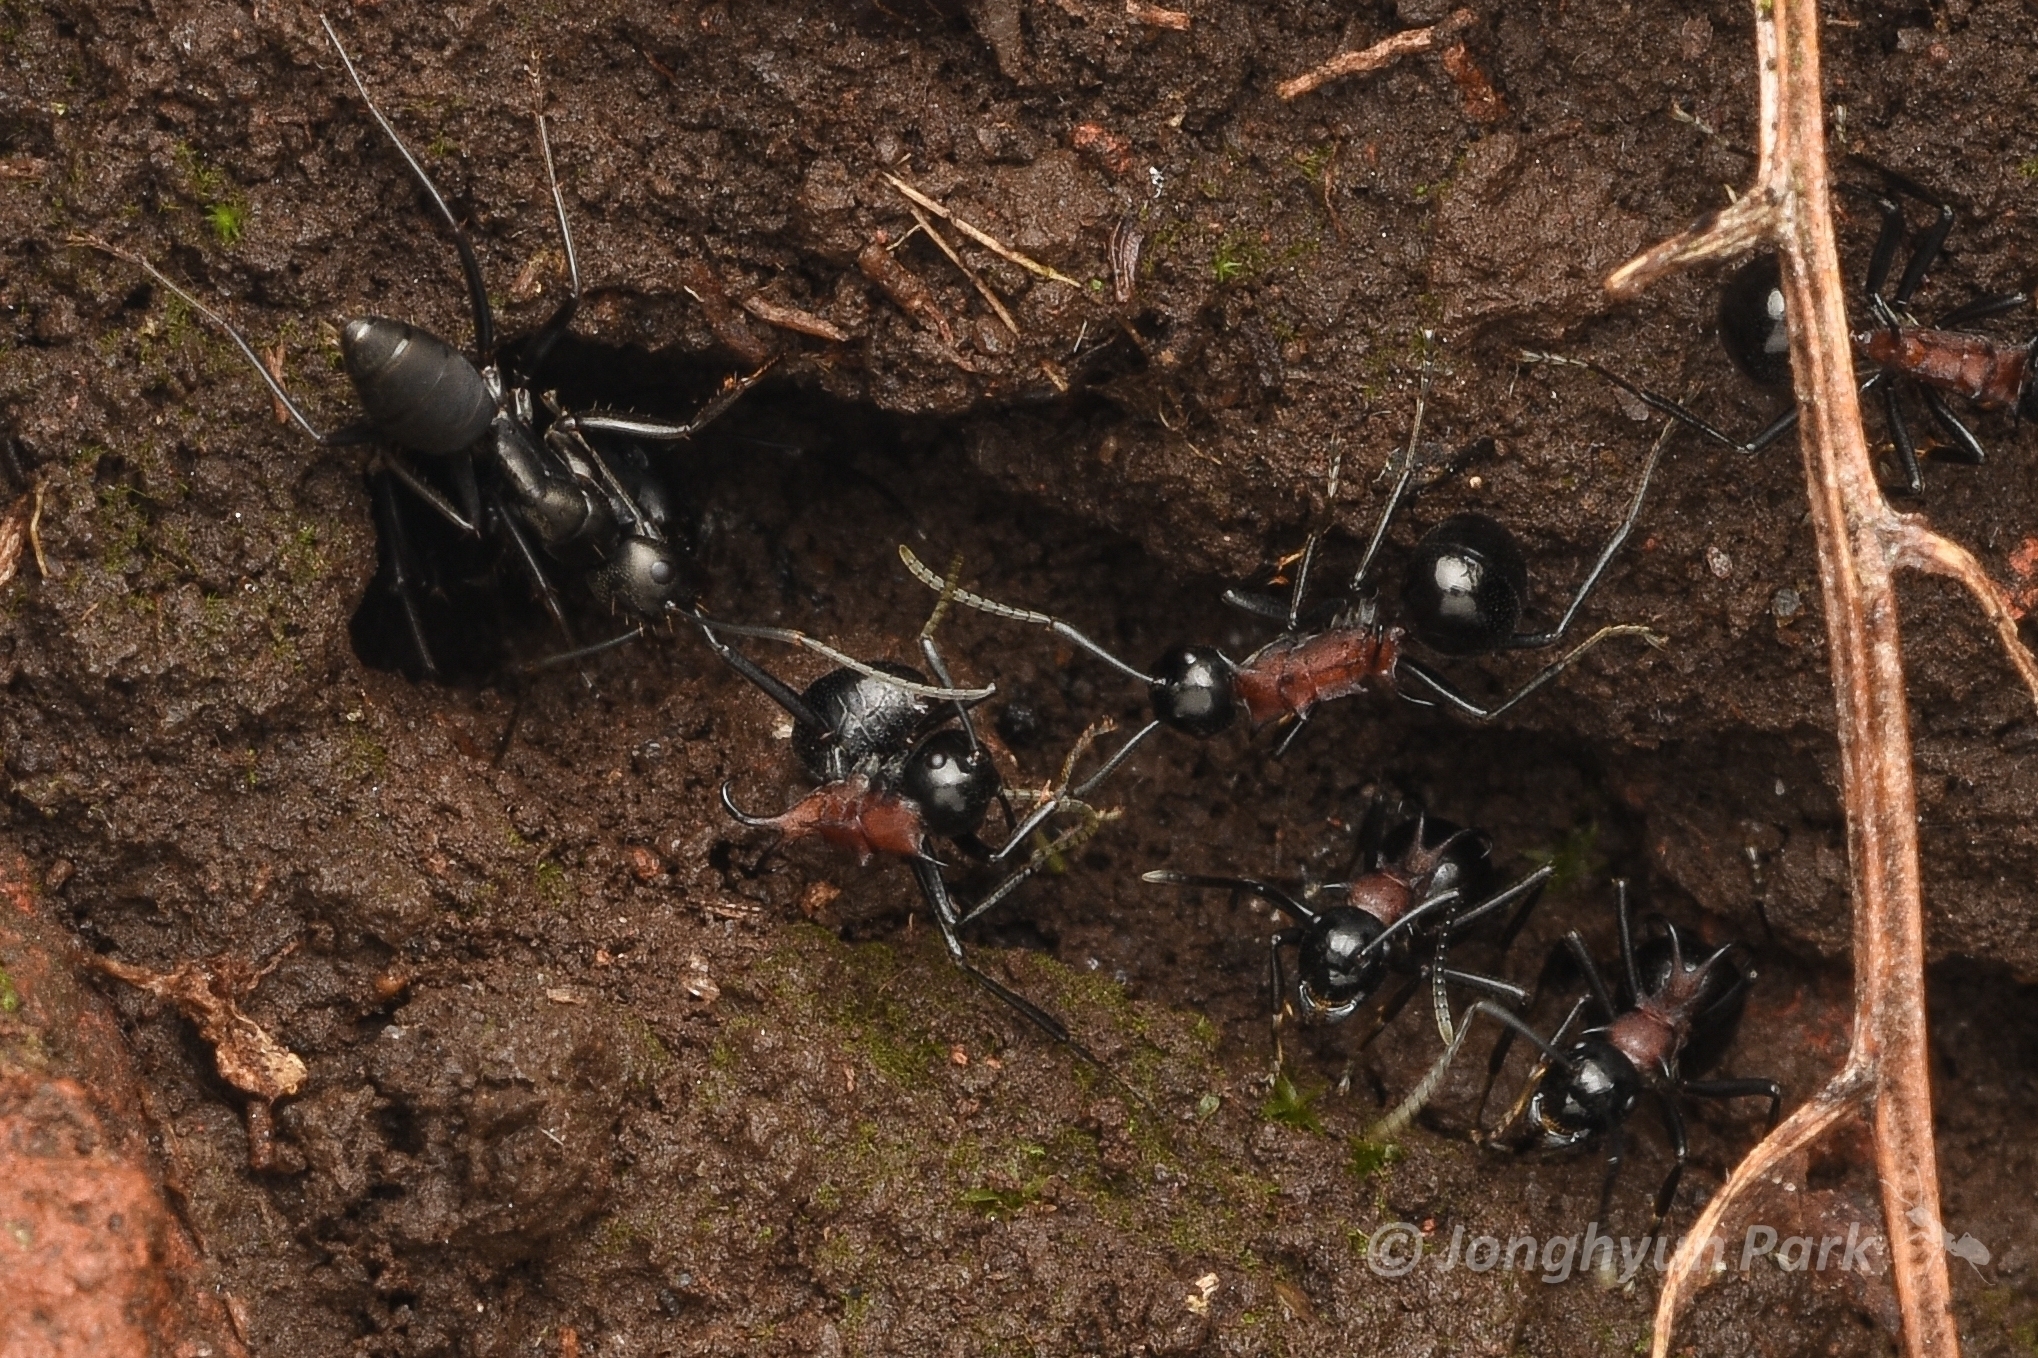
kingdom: Animalia
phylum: Arthropoda
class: Insecta
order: Hymenoptera
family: Formicidae
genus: Camponotus
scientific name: Camponotus japonicus
